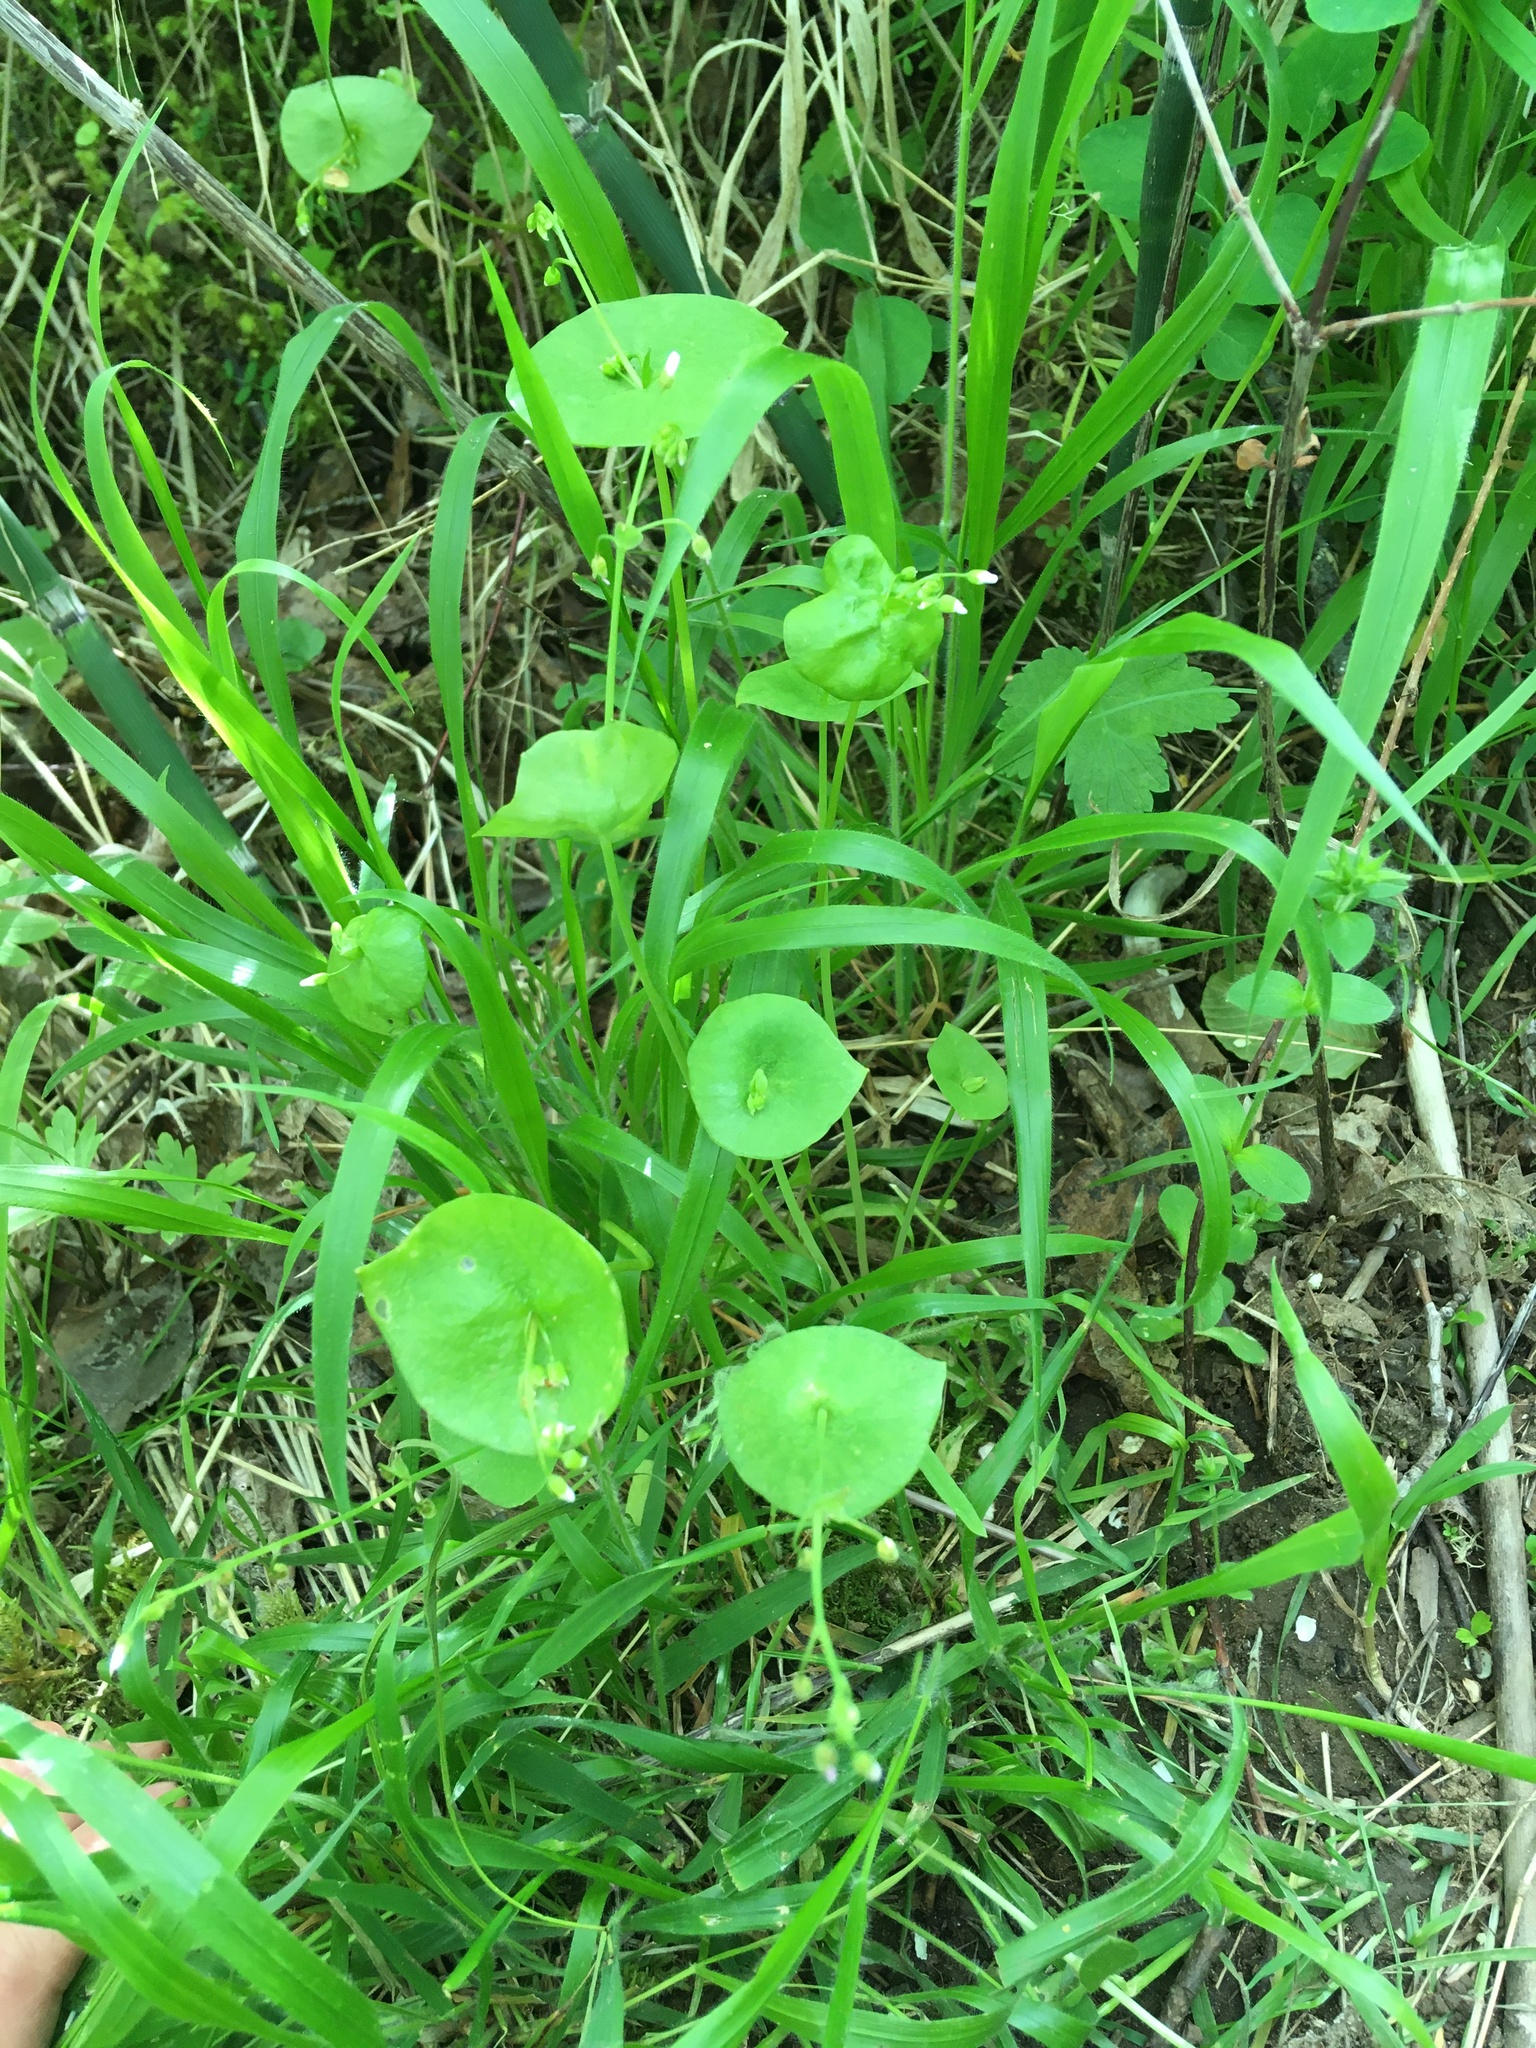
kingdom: Plantae
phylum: Tracheophyta
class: Magnoliopsida
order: Caryophyllales
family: Montiaceae
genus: Claytonia
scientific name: Claytonia perfoliata
